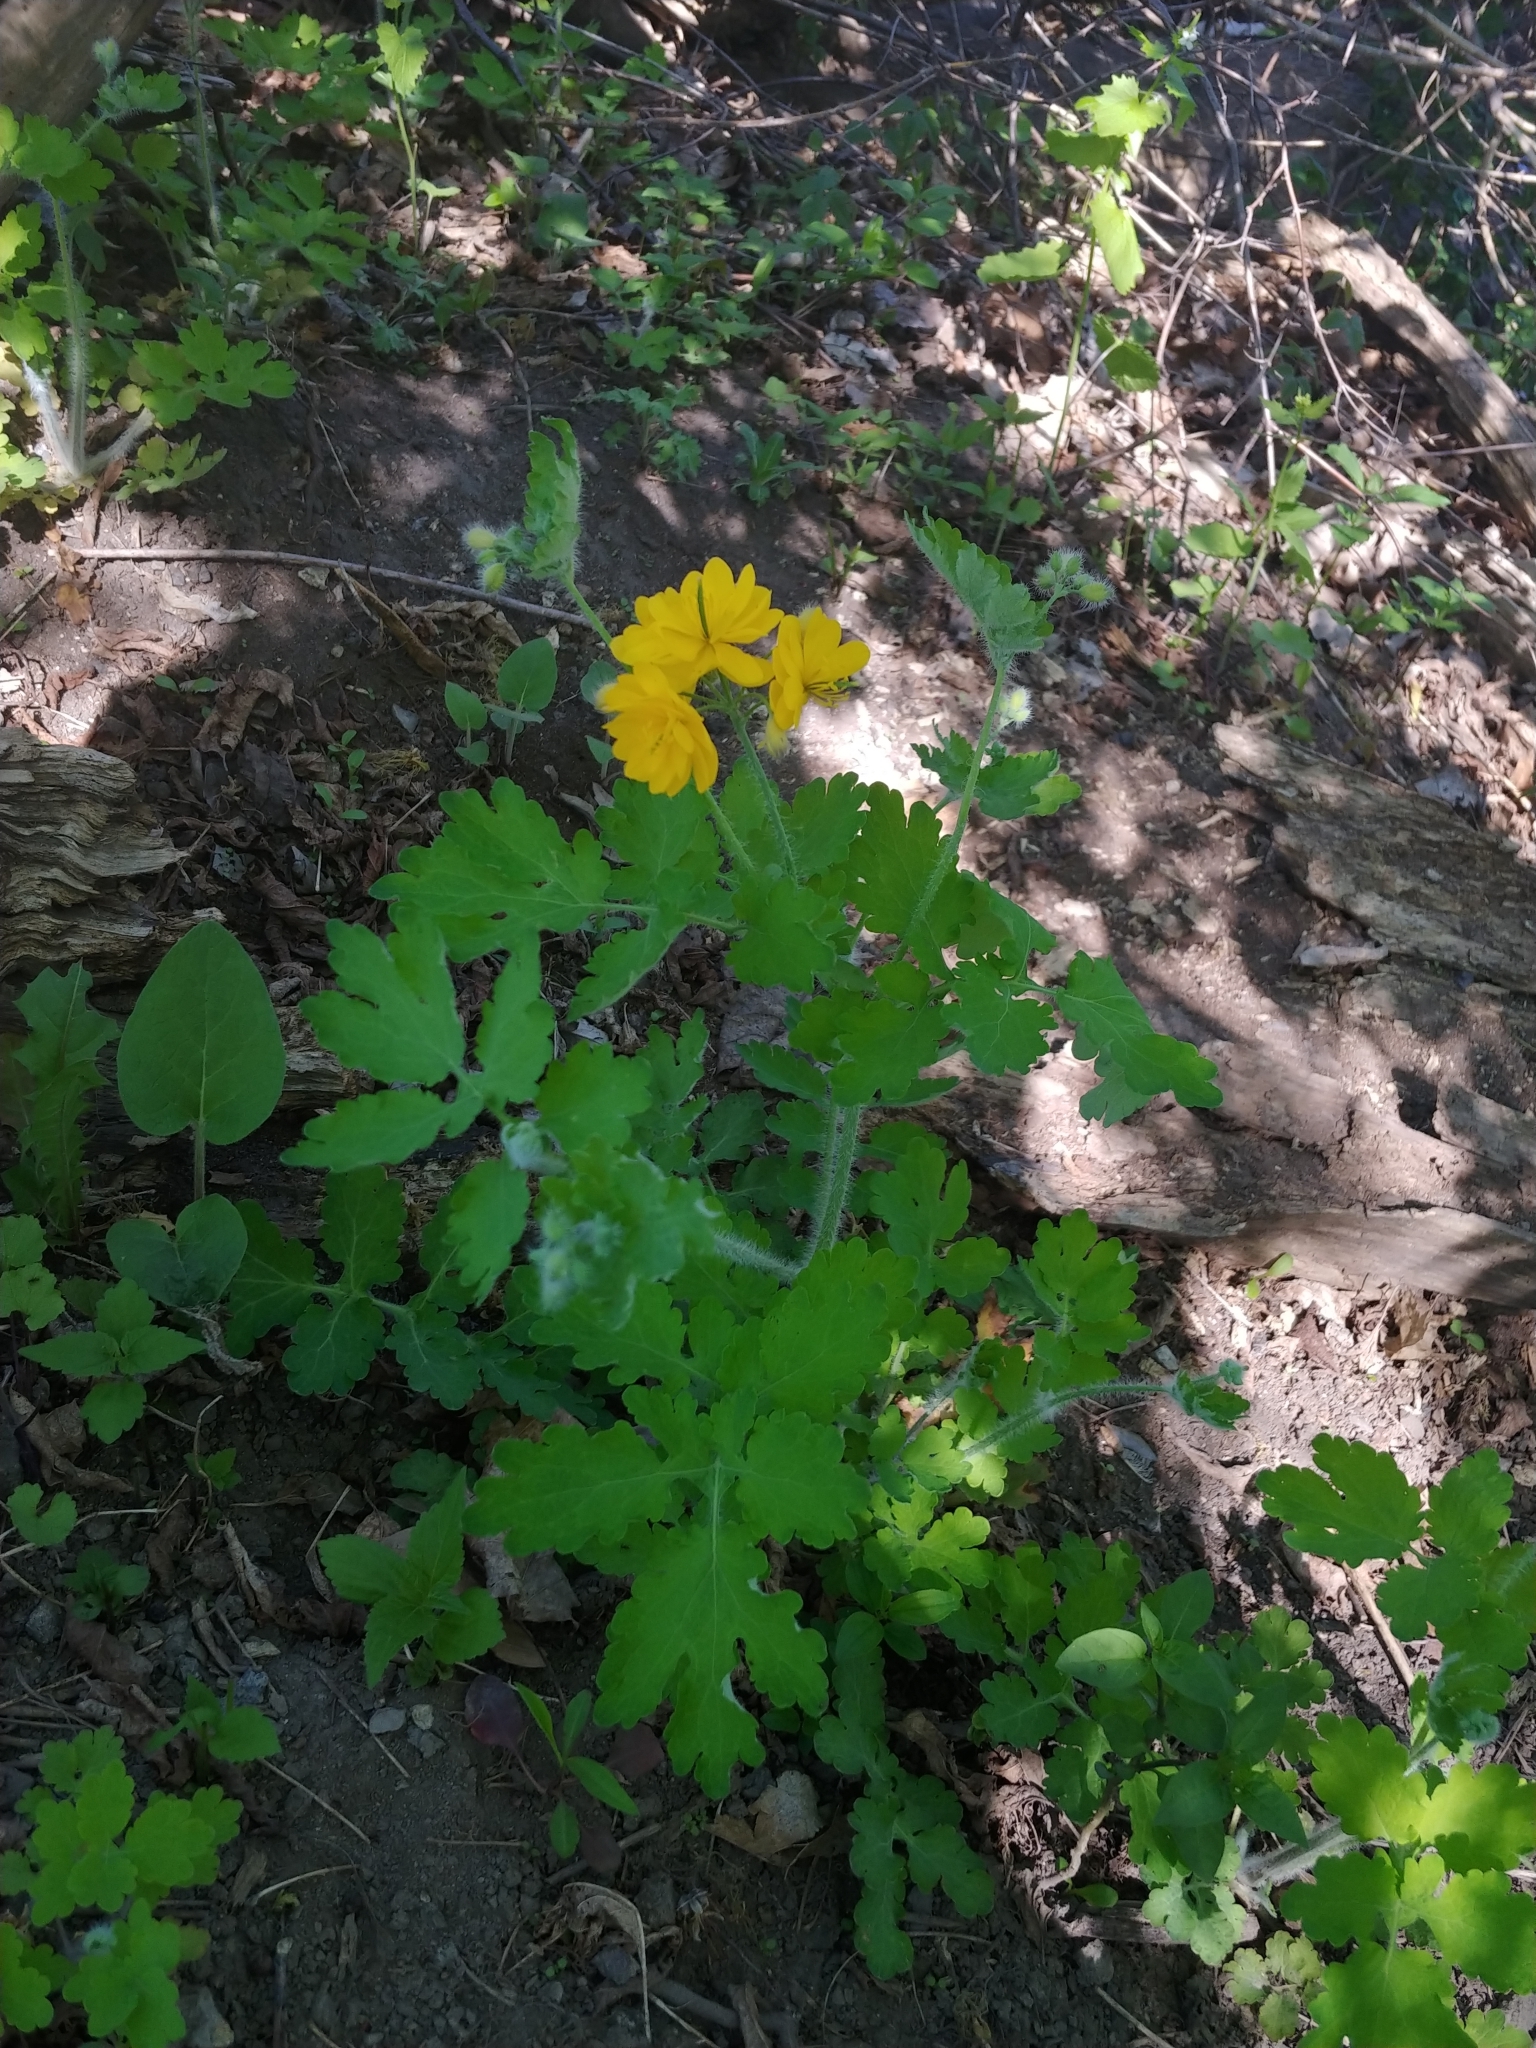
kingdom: Plantae
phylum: Tracheophyta
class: Magnoliopsida
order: Ranunculales
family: Papaveraceae
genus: Chelidonium
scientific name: Chelidonium majus
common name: Greater celandine
